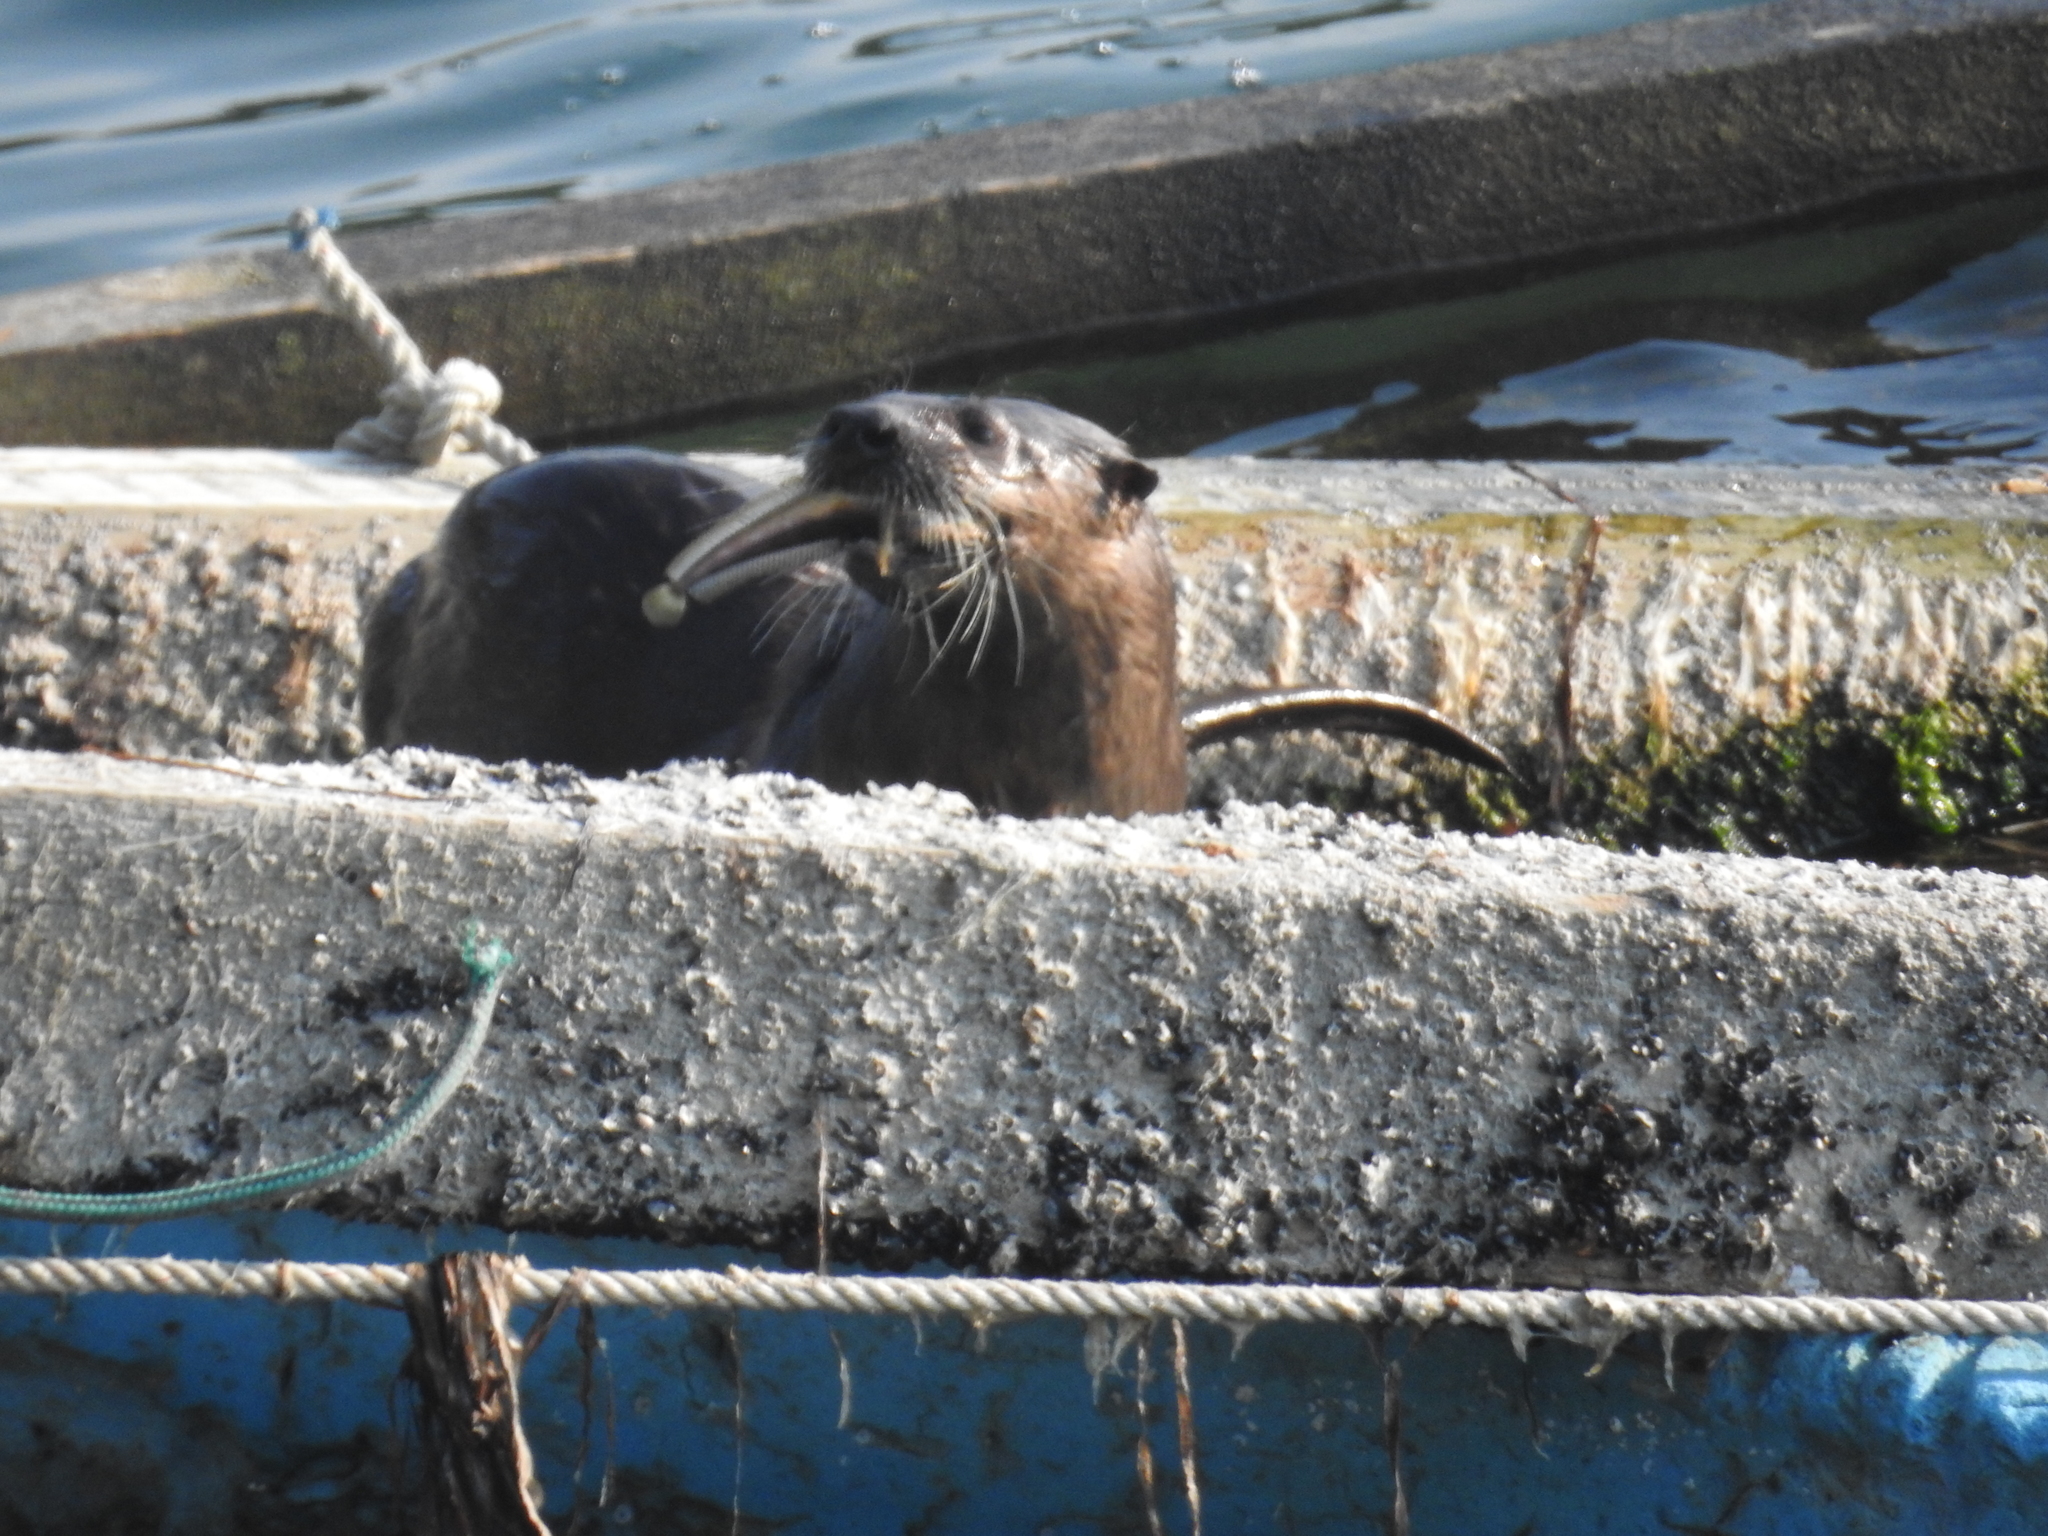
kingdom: Animalia
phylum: Chordata
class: Mammalia
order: Carnivora
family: Mustelidae
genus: Lontra
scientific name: Lontra canadensis
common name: North american river otter
